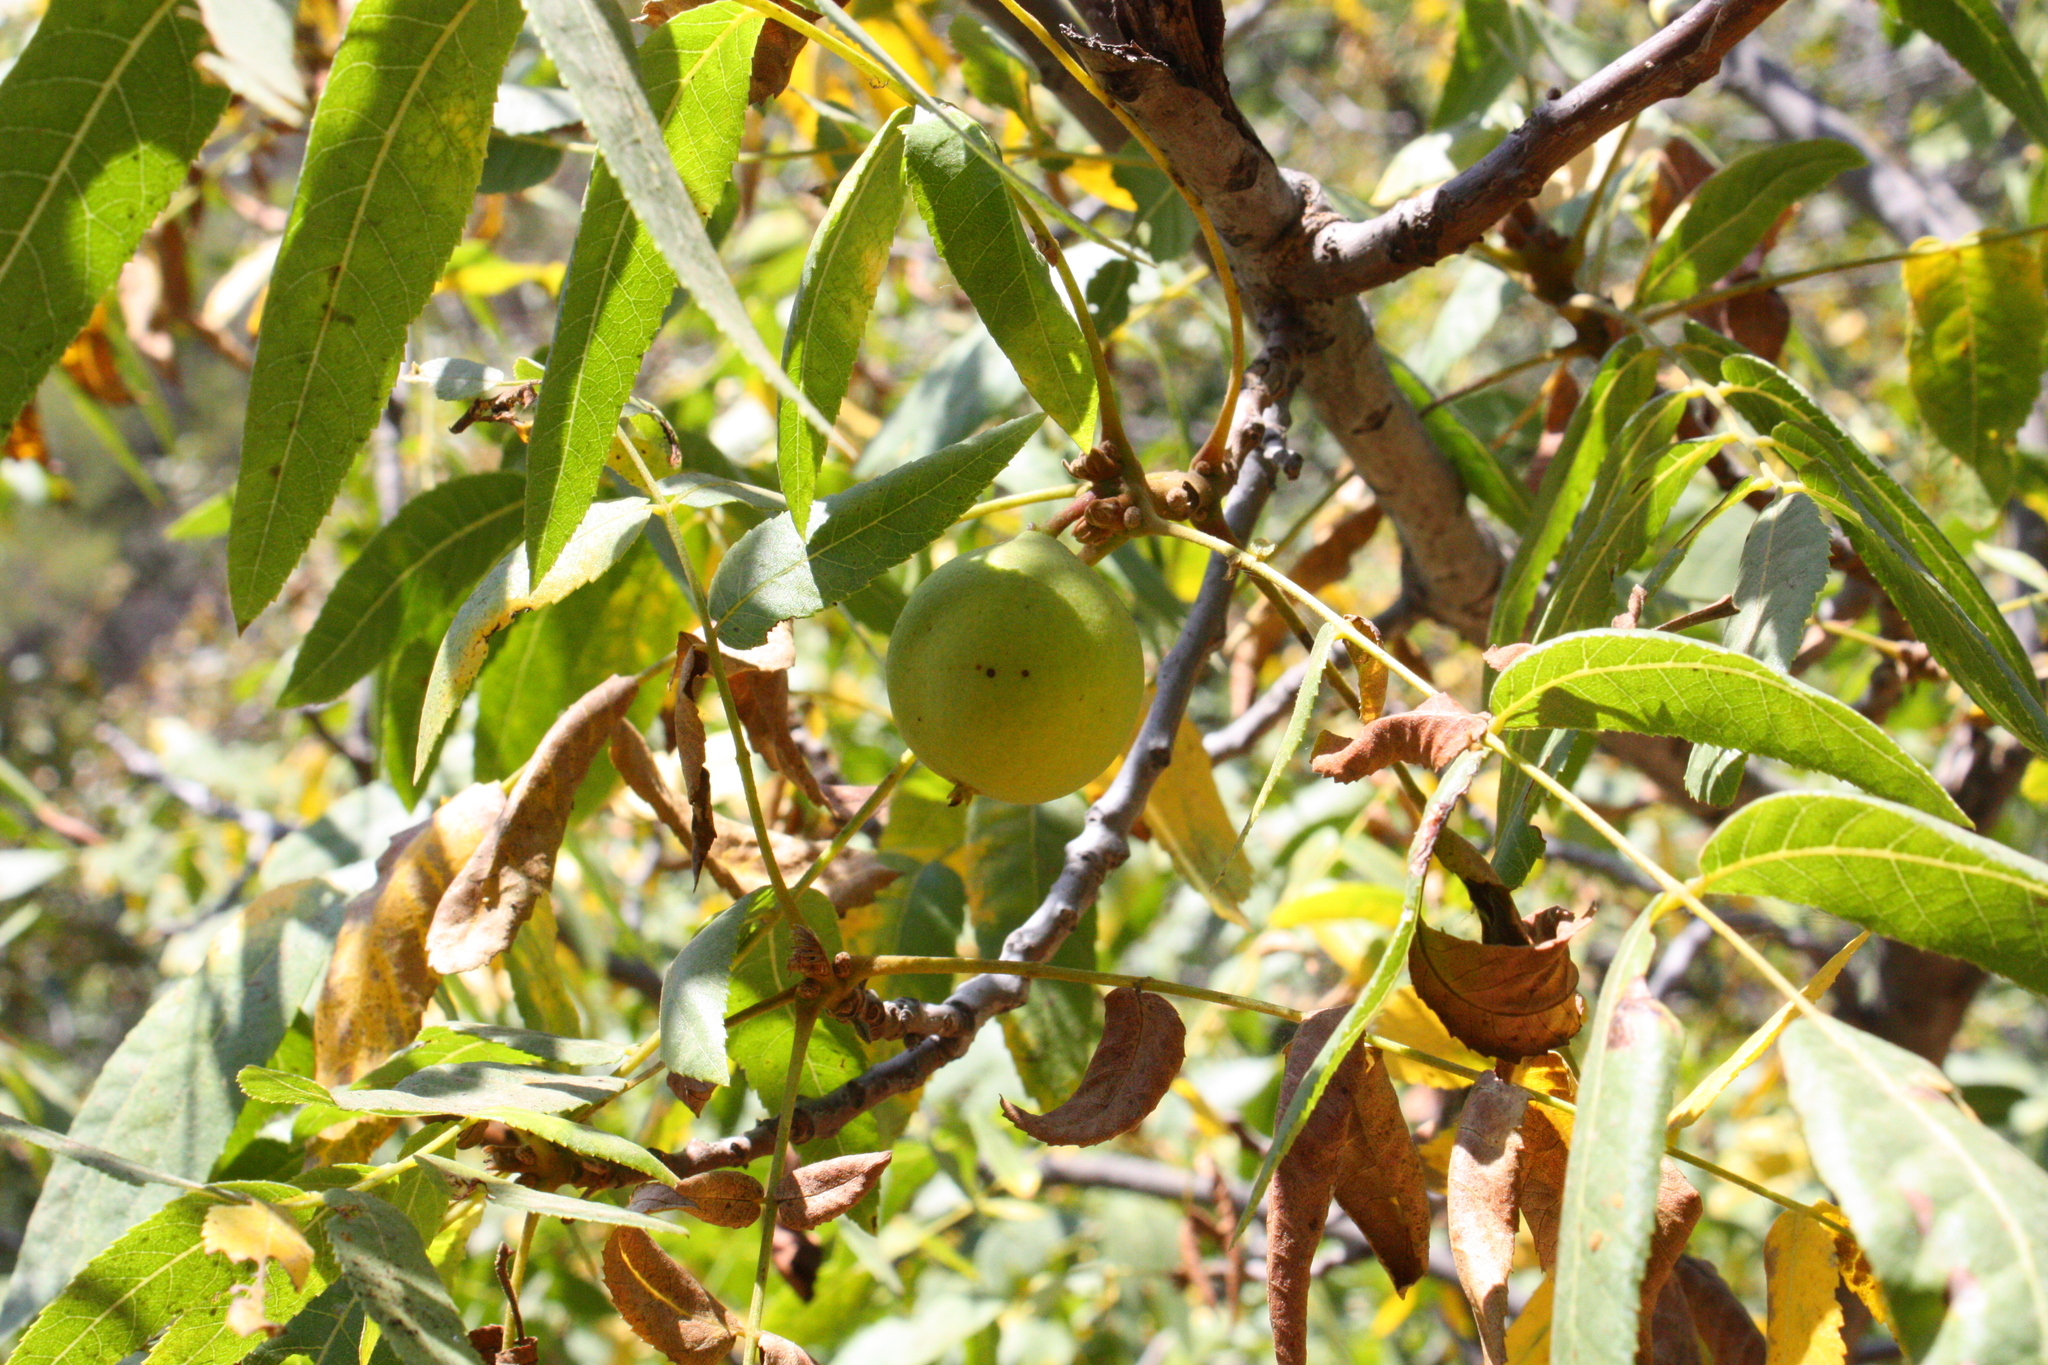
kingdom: Plantae
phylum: Tracheophyta
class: Magnoliopsida
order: Fagales
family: Juglandaceae
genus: Juglans
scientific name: Juglans californica
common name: Southern california black walnut
